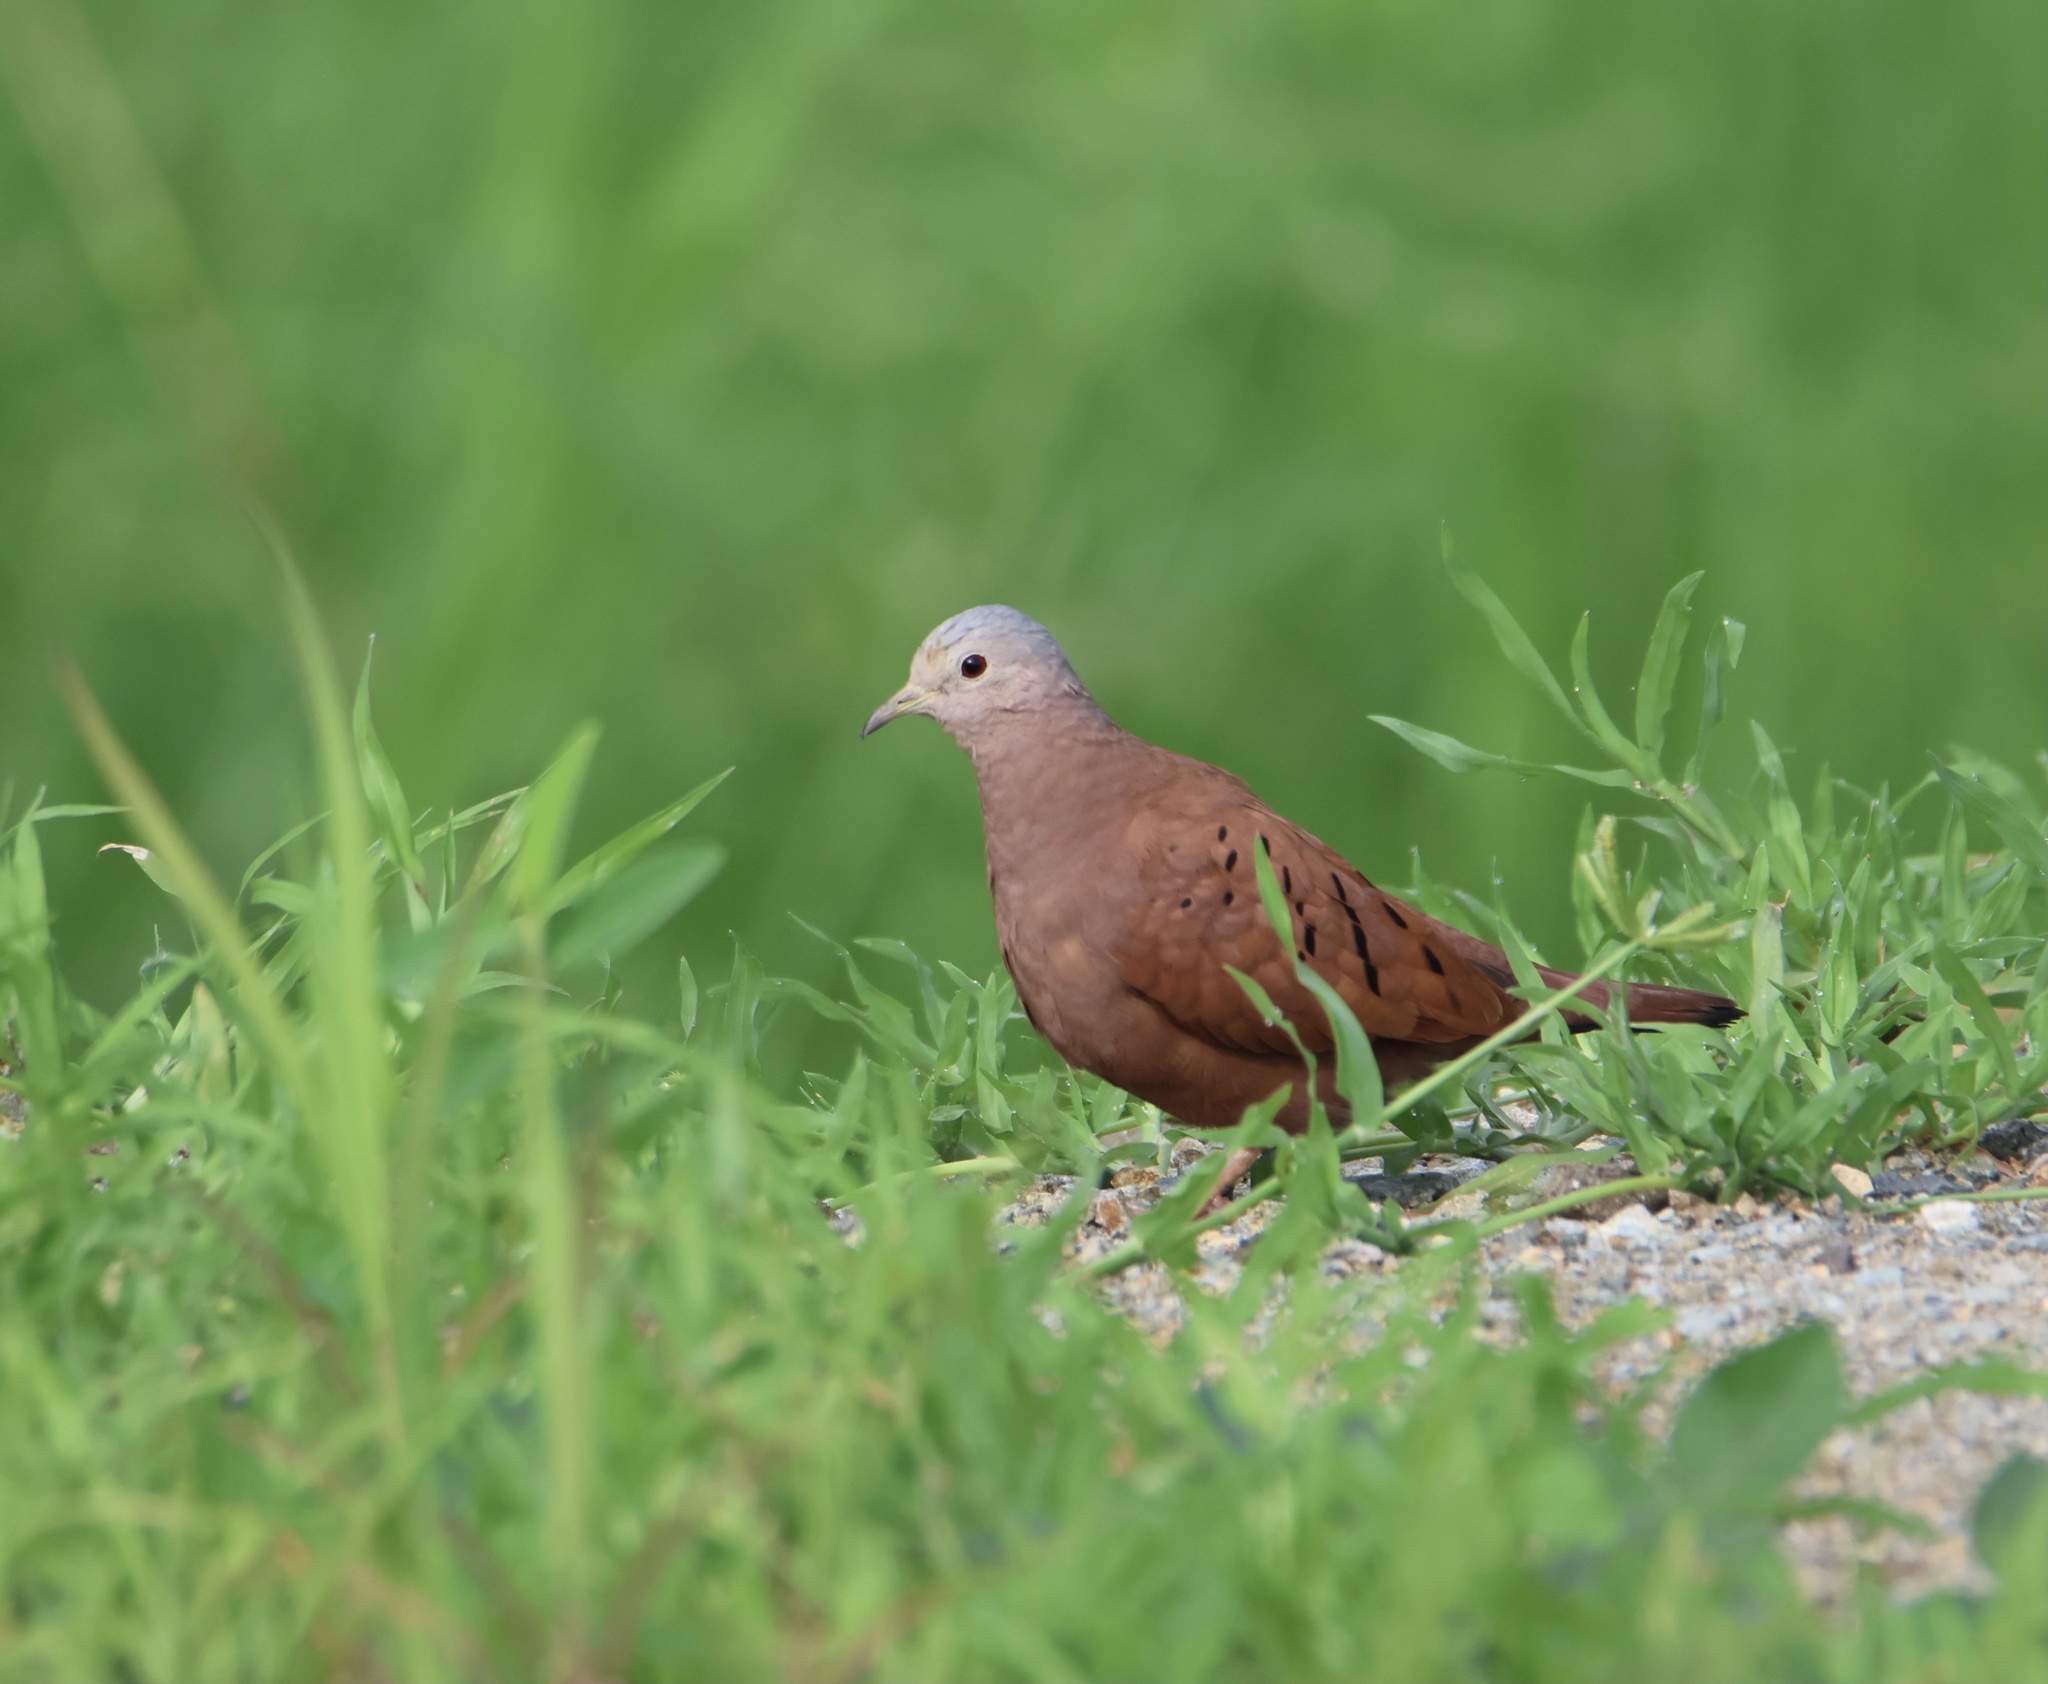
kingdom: Animalia
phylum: Chordata
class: Aves
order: Columbiformes
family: Columbidae
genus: Columbina
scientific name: Columbina talpacoti
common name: Ruddy ground dove
